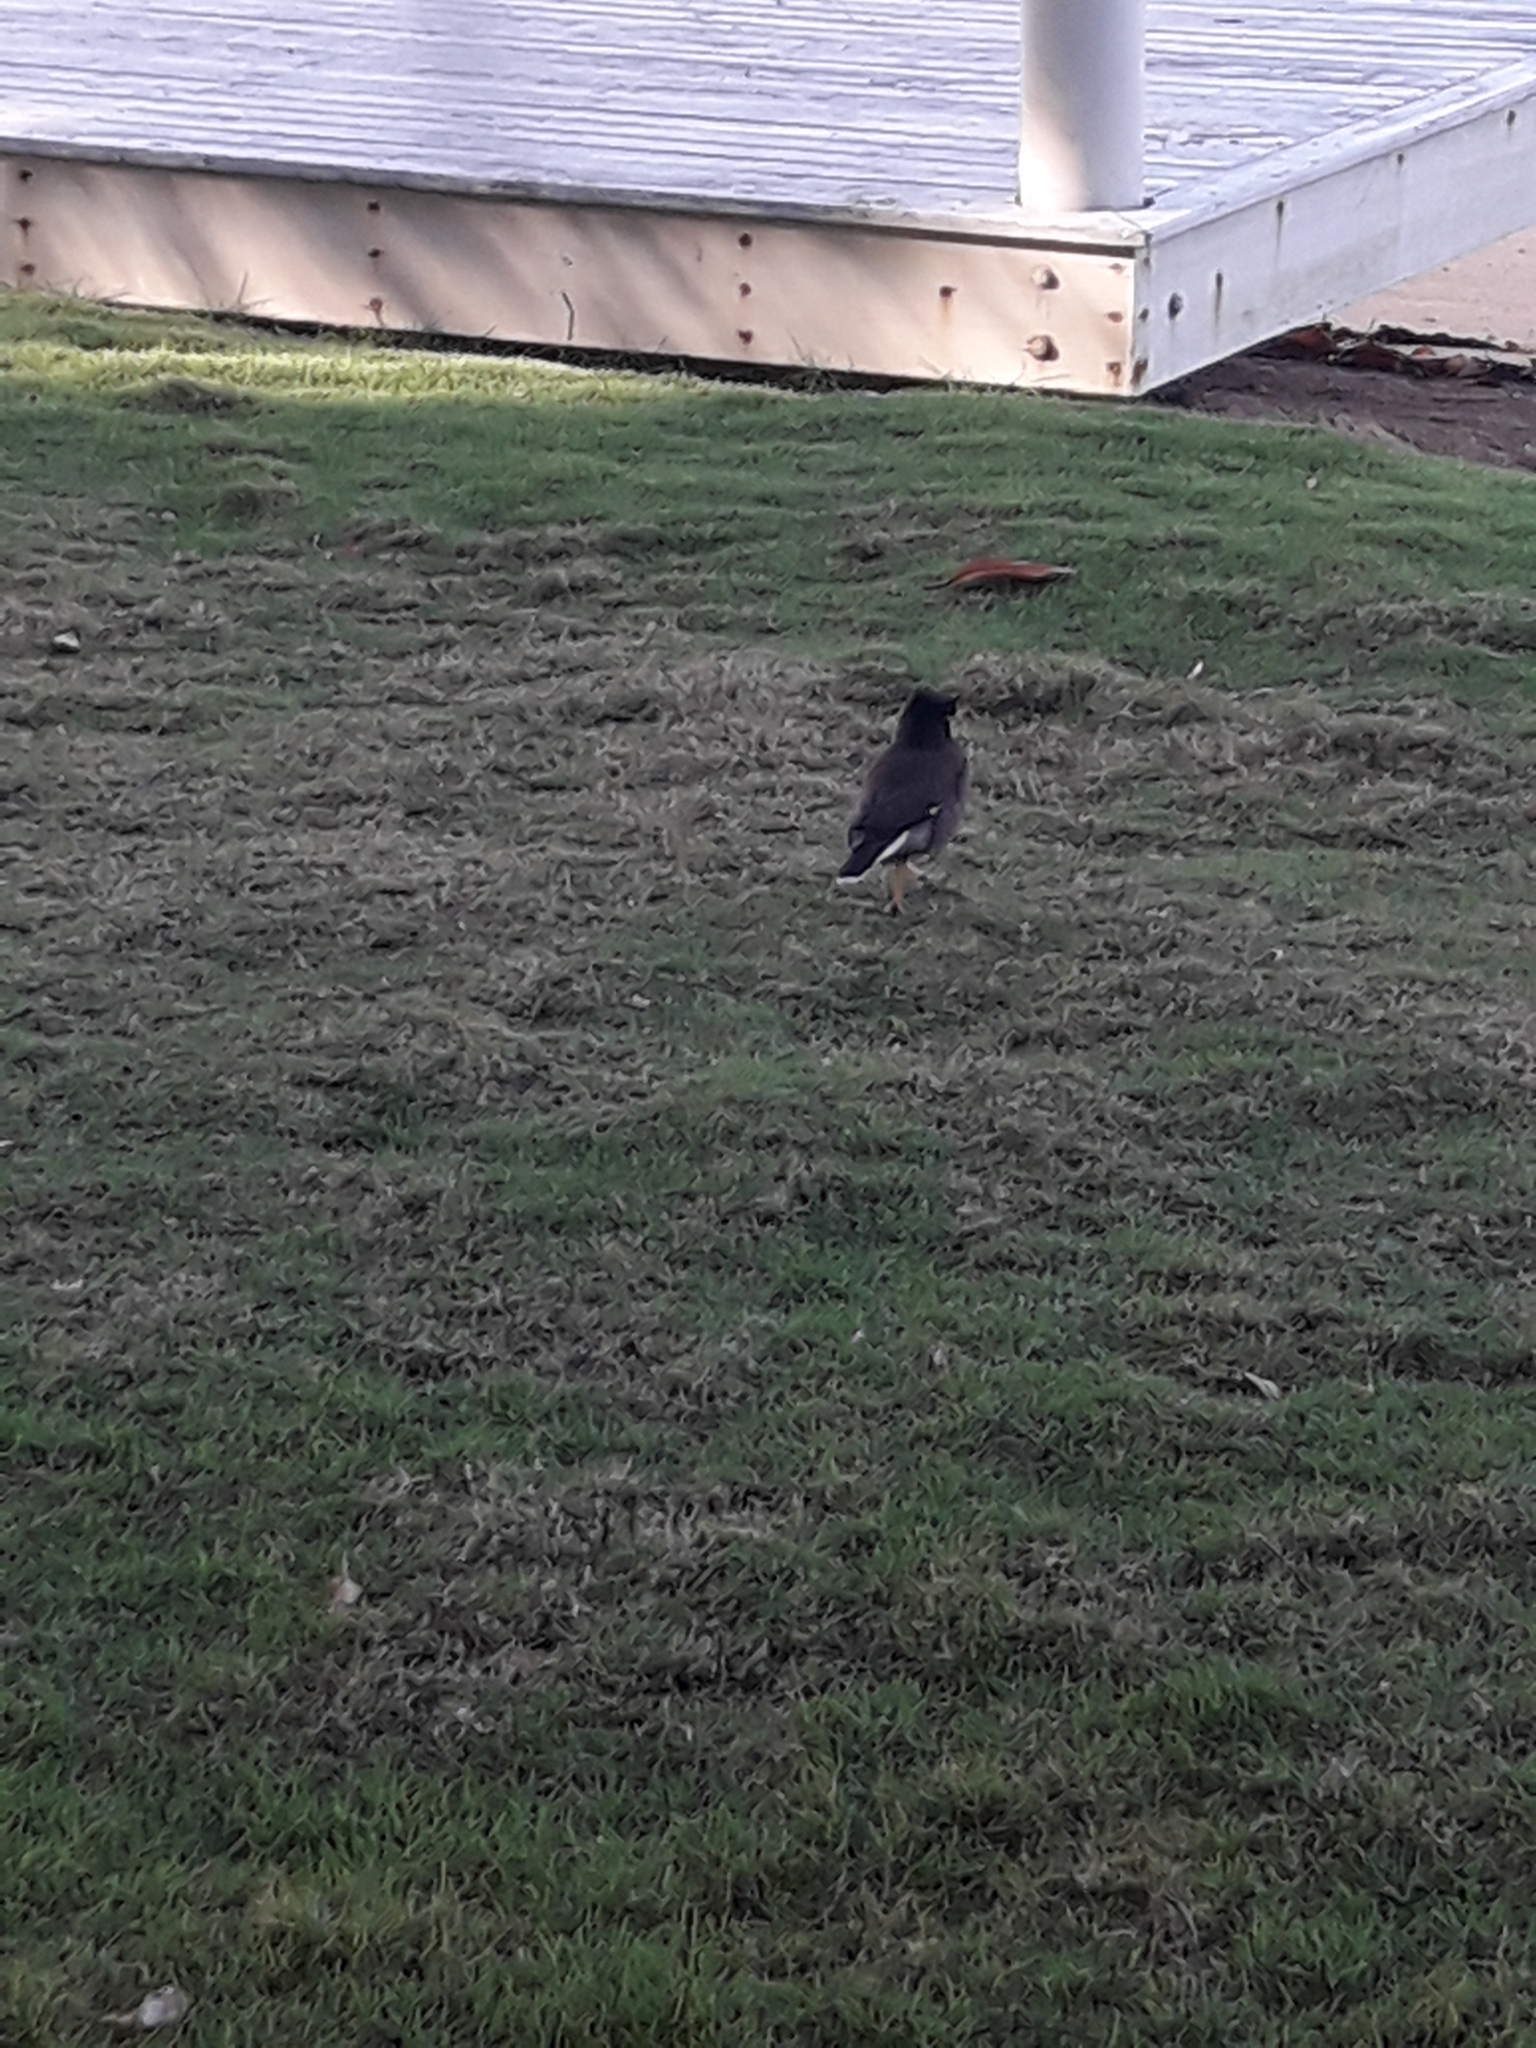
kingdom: Animalia
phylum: Chordata
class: Aves
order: Passeriformes
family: Sturnidae
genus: Acridotheres
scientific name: Acridotheres tristis
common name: Common myna
